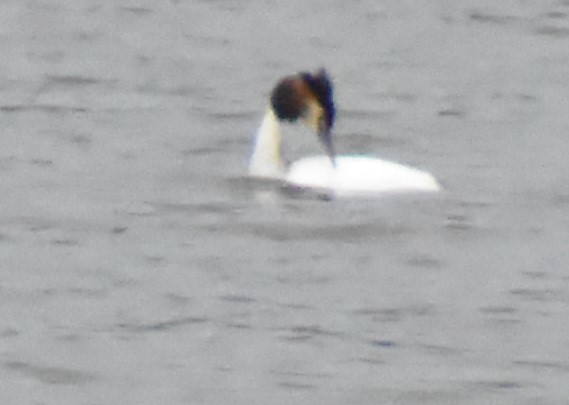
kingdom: Animalia
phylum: Chordata
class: Aves
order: Podicipediformes
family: Podicipedidae
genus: Podiceps
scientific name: Podiceps cristatus
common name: Great crested grebe
